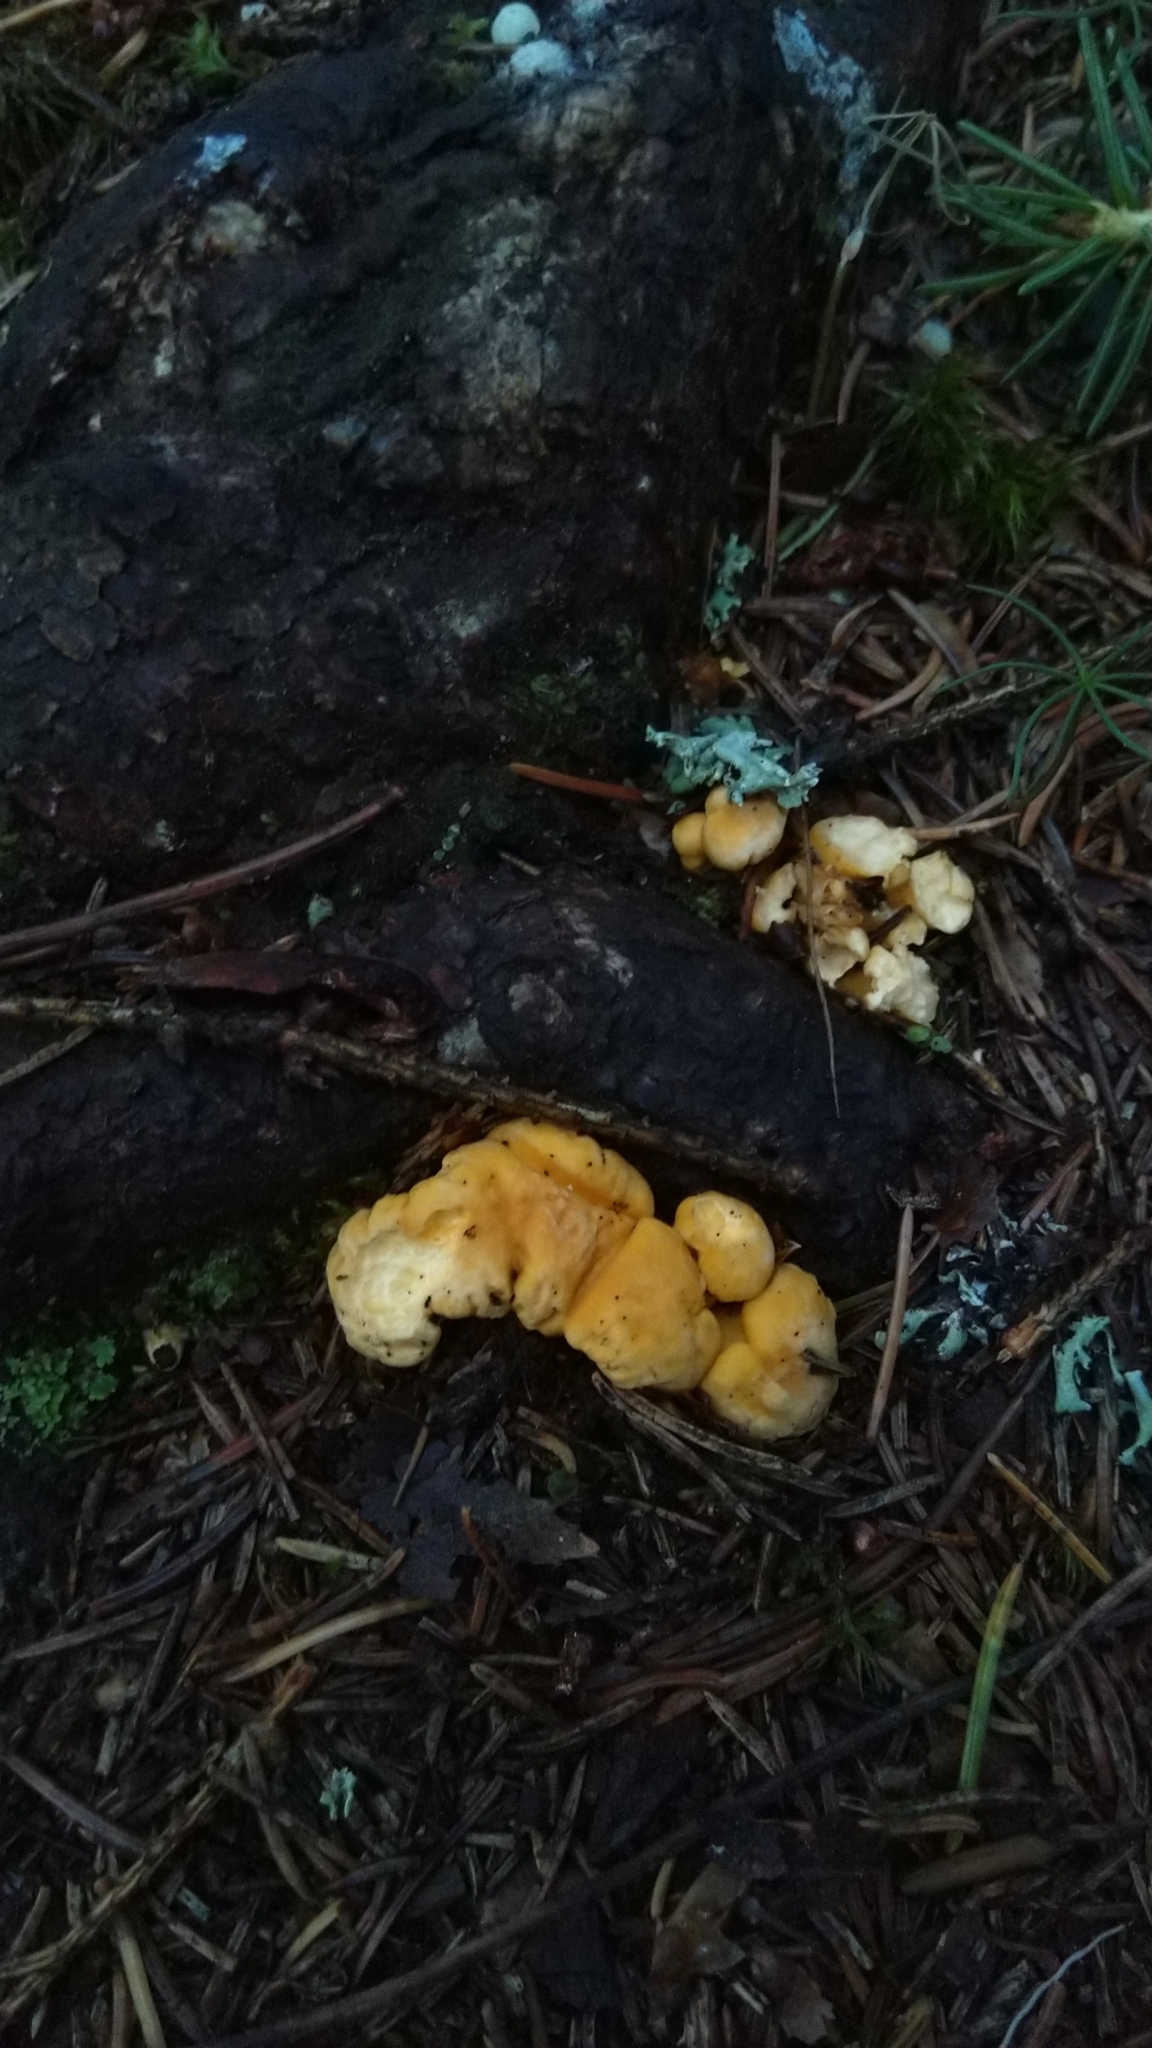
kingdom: Fungi
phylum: Basidiomycota
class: Agaricomycetes
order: Cantharellales
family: Hydnaceae
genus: Cantharellus
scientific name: Cantharellus cibarius
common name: Chanterelle
